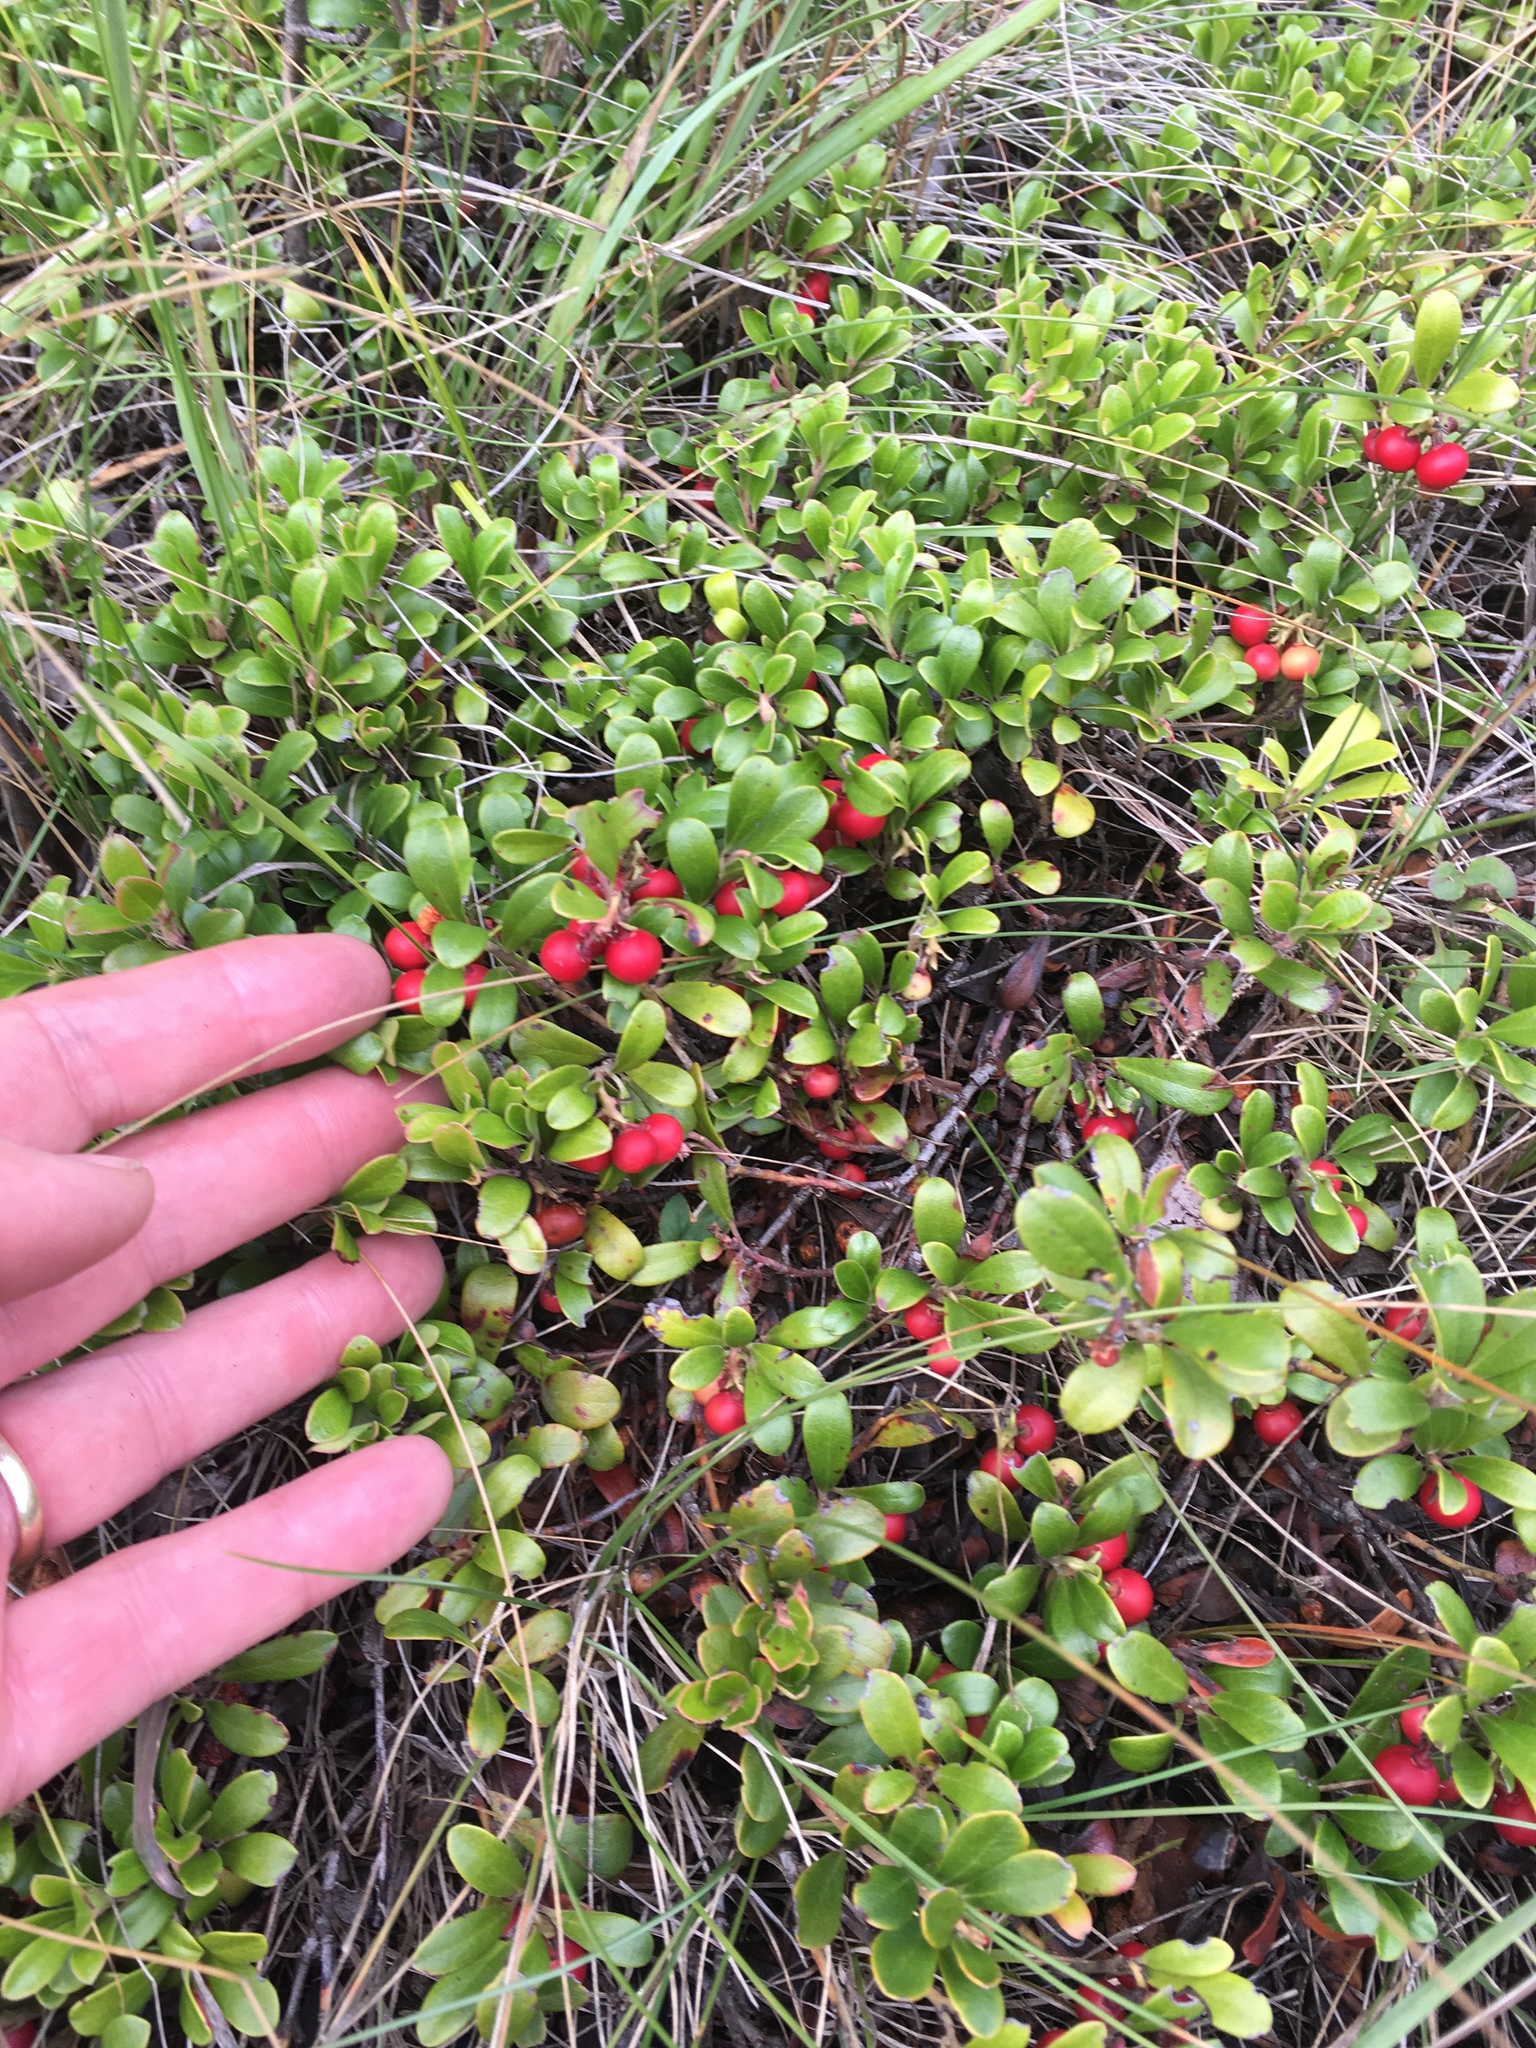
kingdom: Plantae
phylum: Tracheophyta
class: Magnoliopsida
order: Ericales
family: Ericaceae
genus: Arctostaphylos
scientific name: Arctostaphylos uva-ursi
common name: Bearberry
